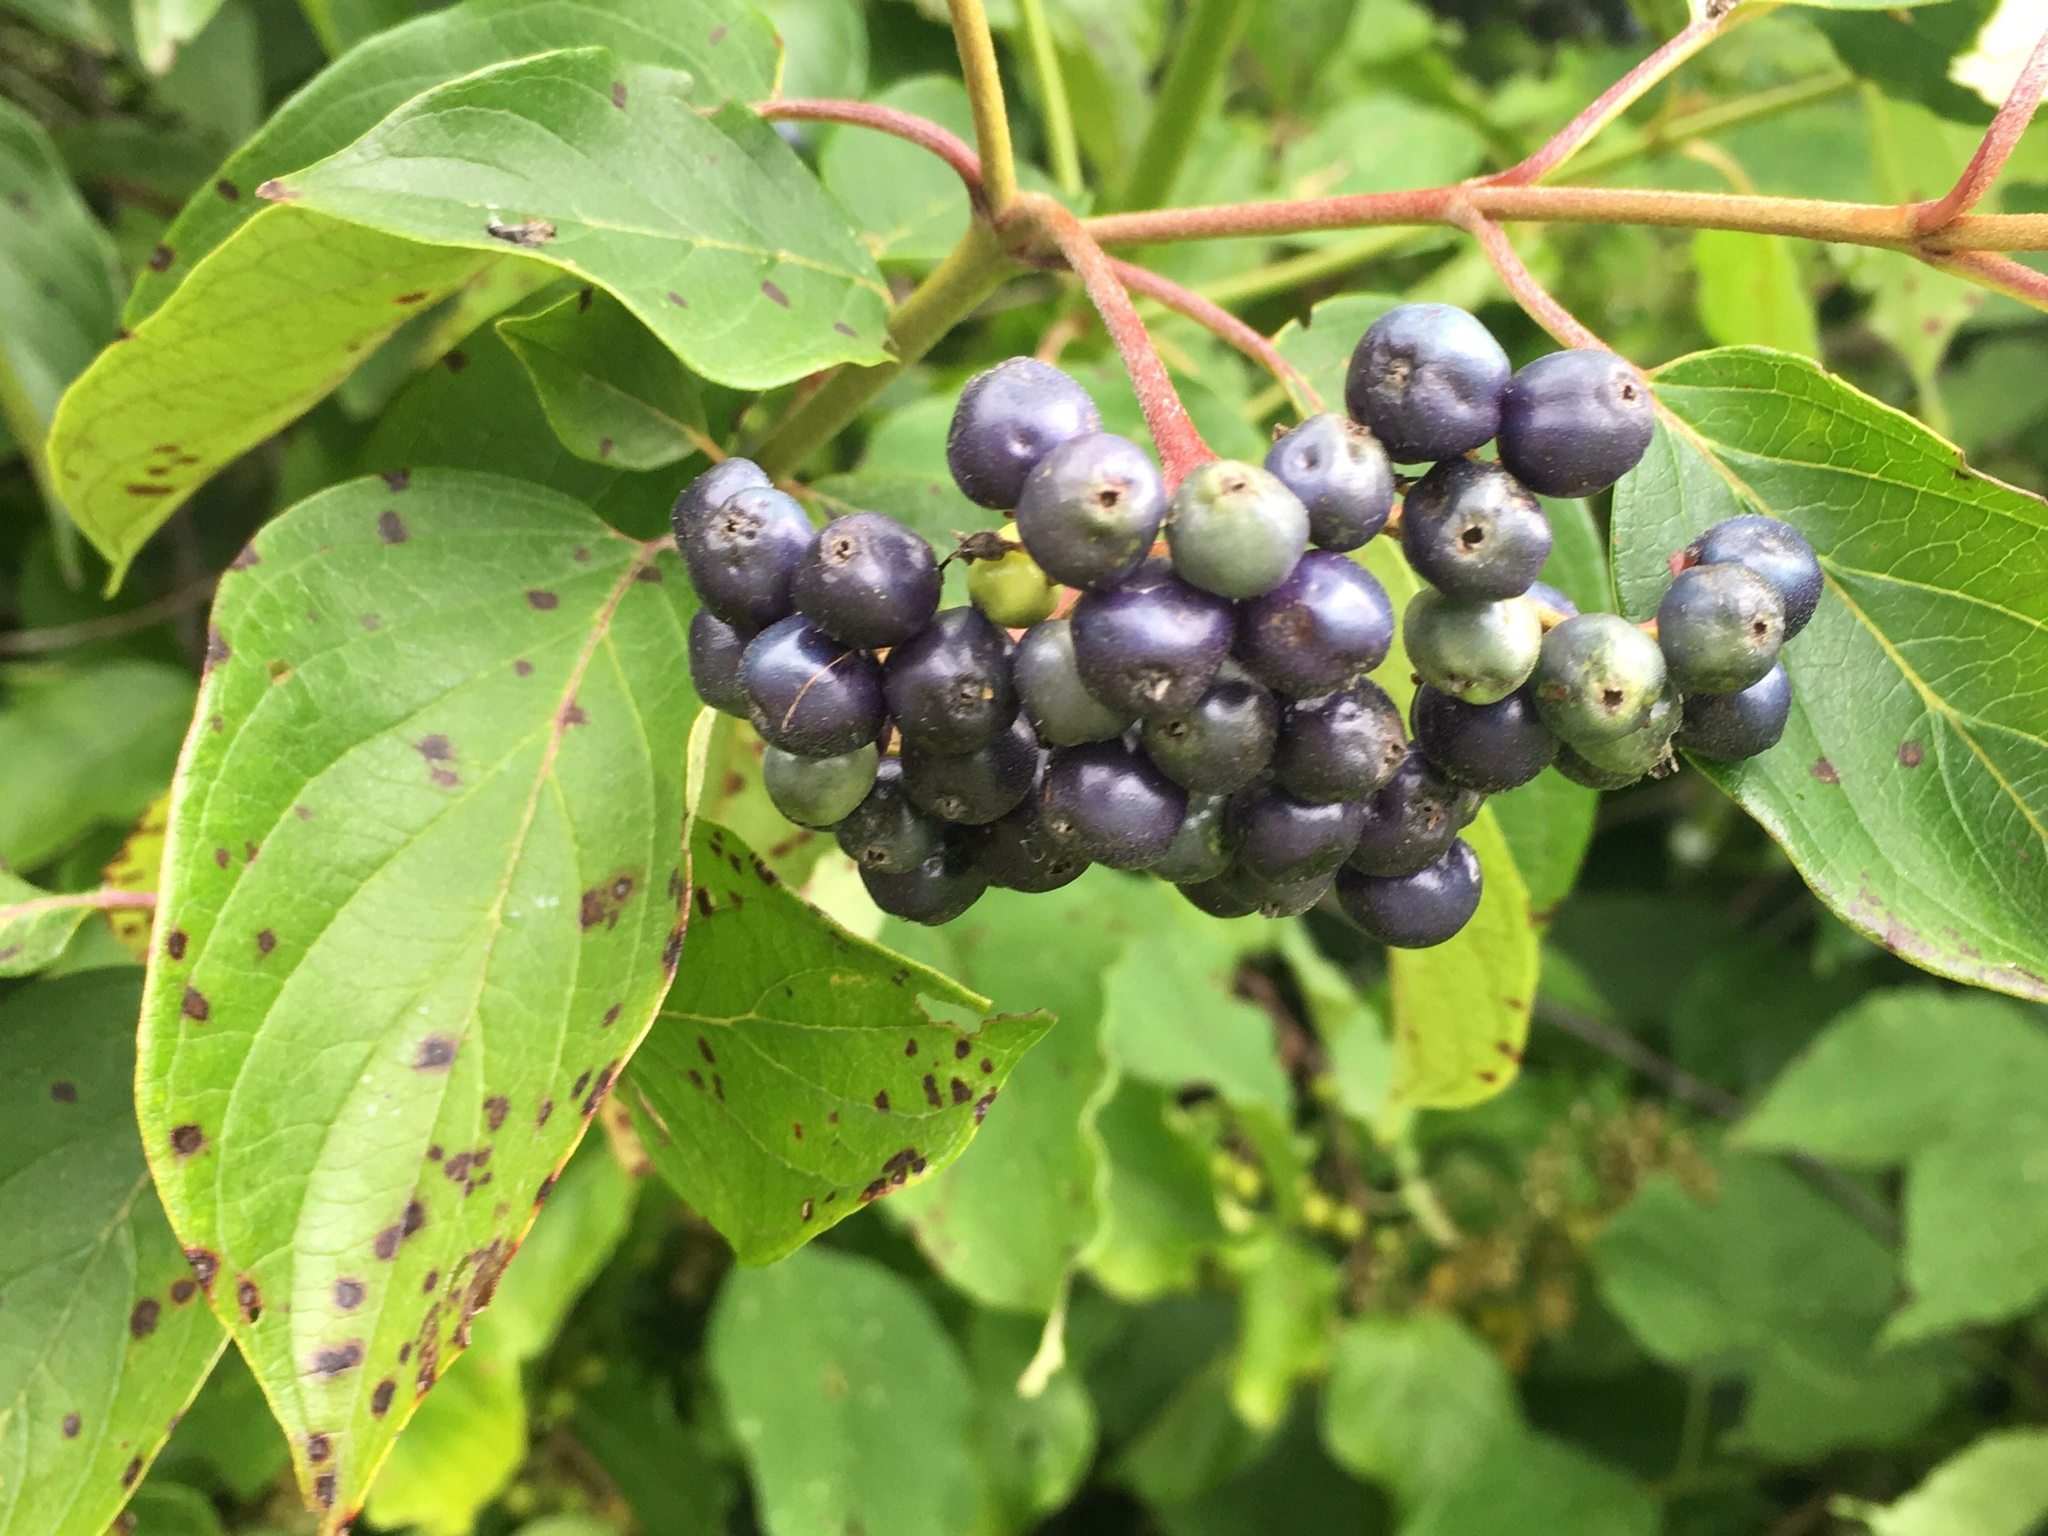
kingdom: Plantae
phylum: Tracheophyta
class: Magnoliopsida
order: Cornales
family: Cornaceae
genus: Cornus
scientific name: Cornus amomum
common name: Silky dogwood
